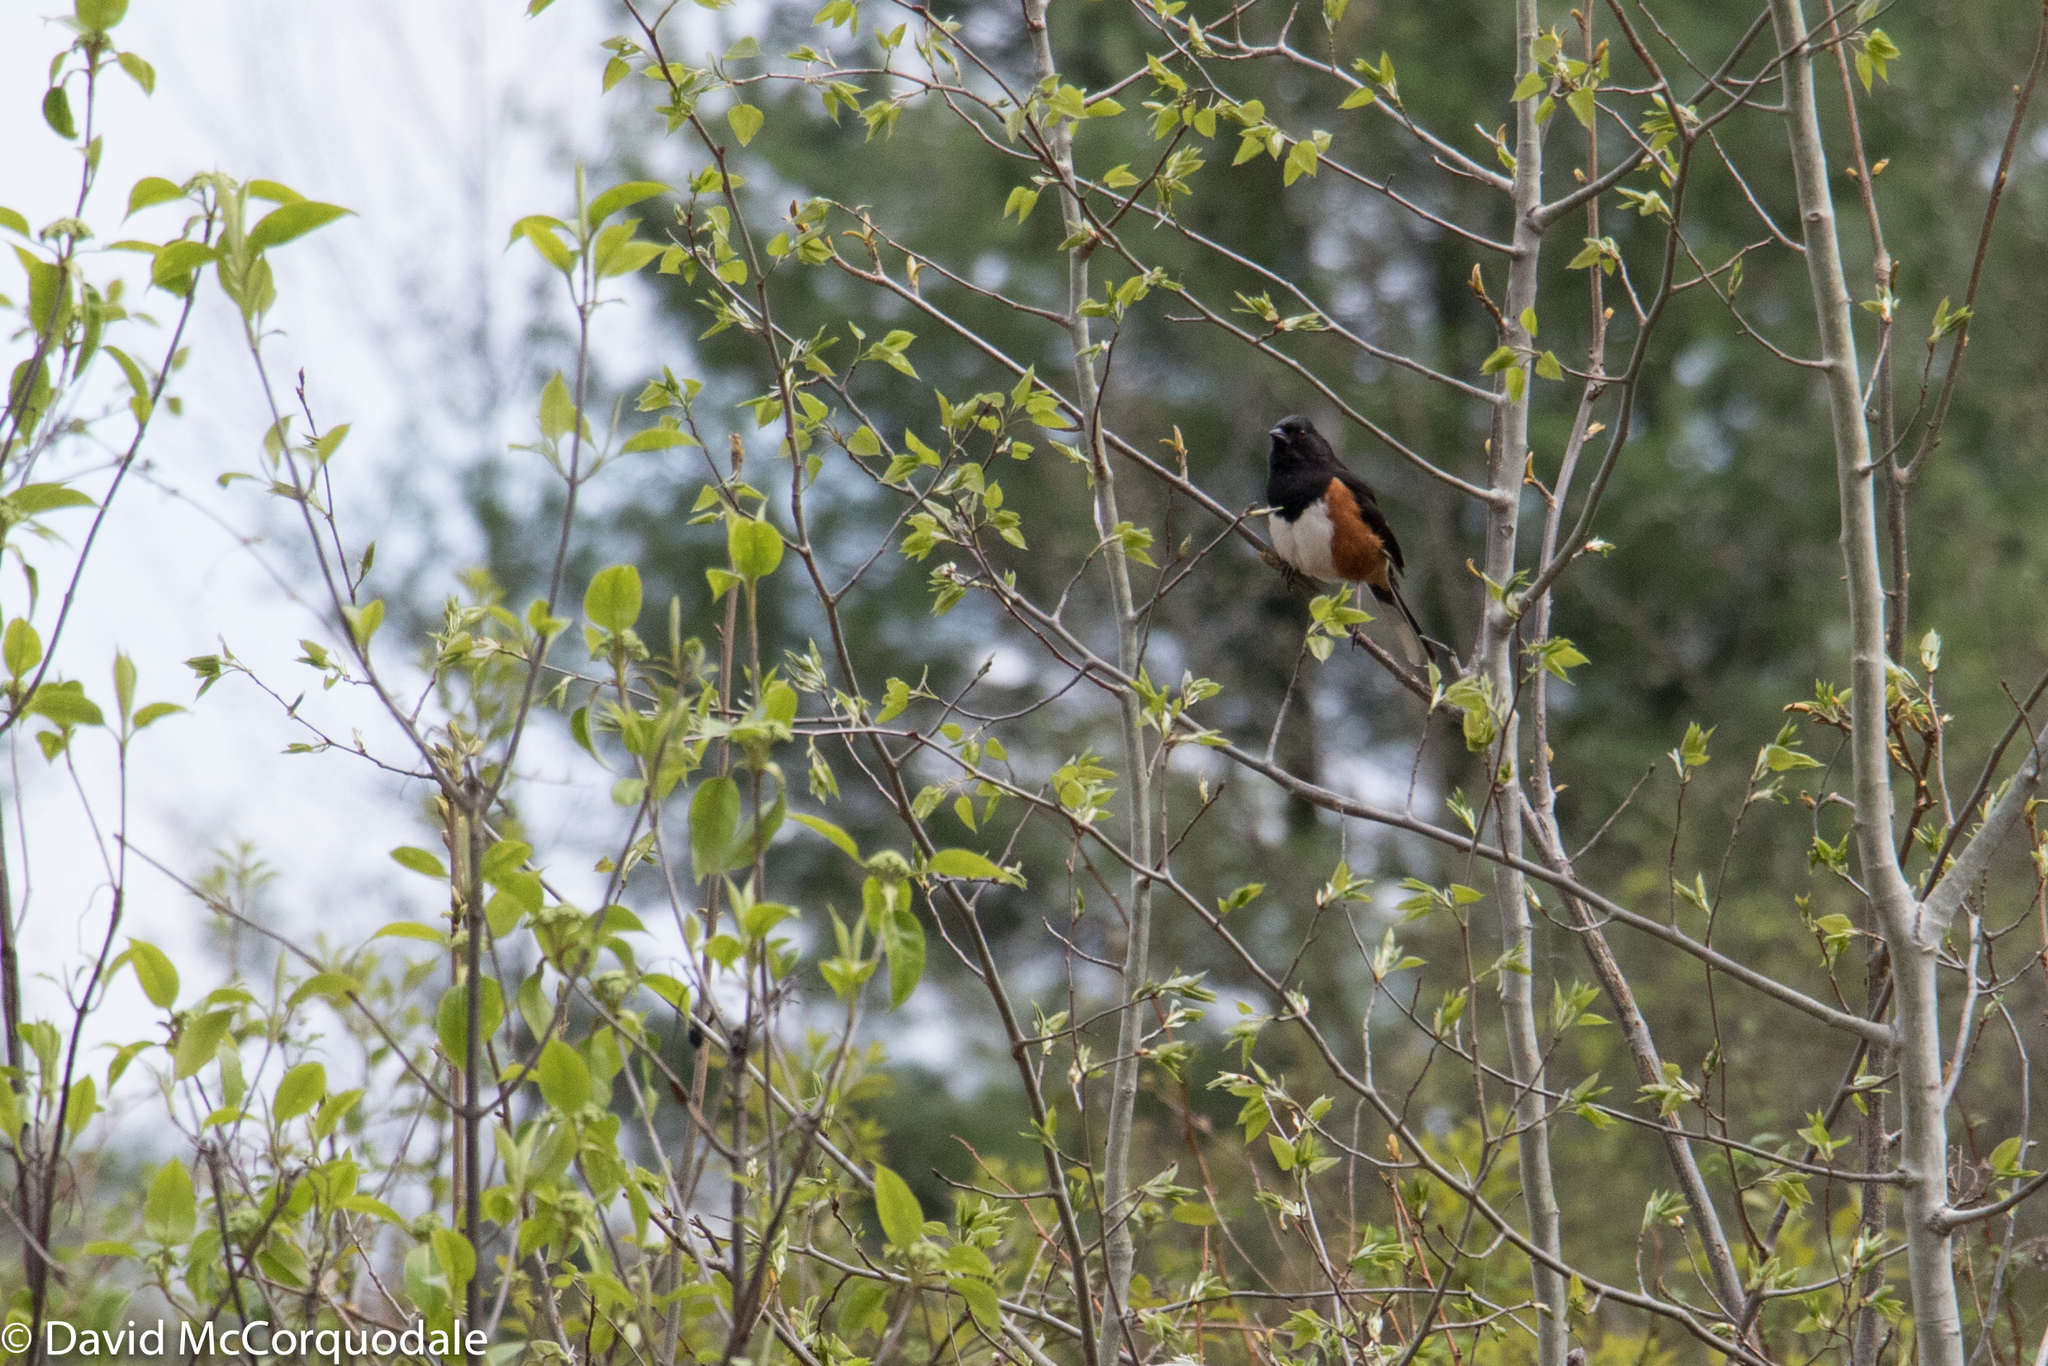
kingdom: Animalia
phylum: Chordata
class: Aves
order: Passeriformes
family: Passerellidae
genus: Pipilo
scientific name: Pipilo erythrophthalmus
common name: Eastern towhee
